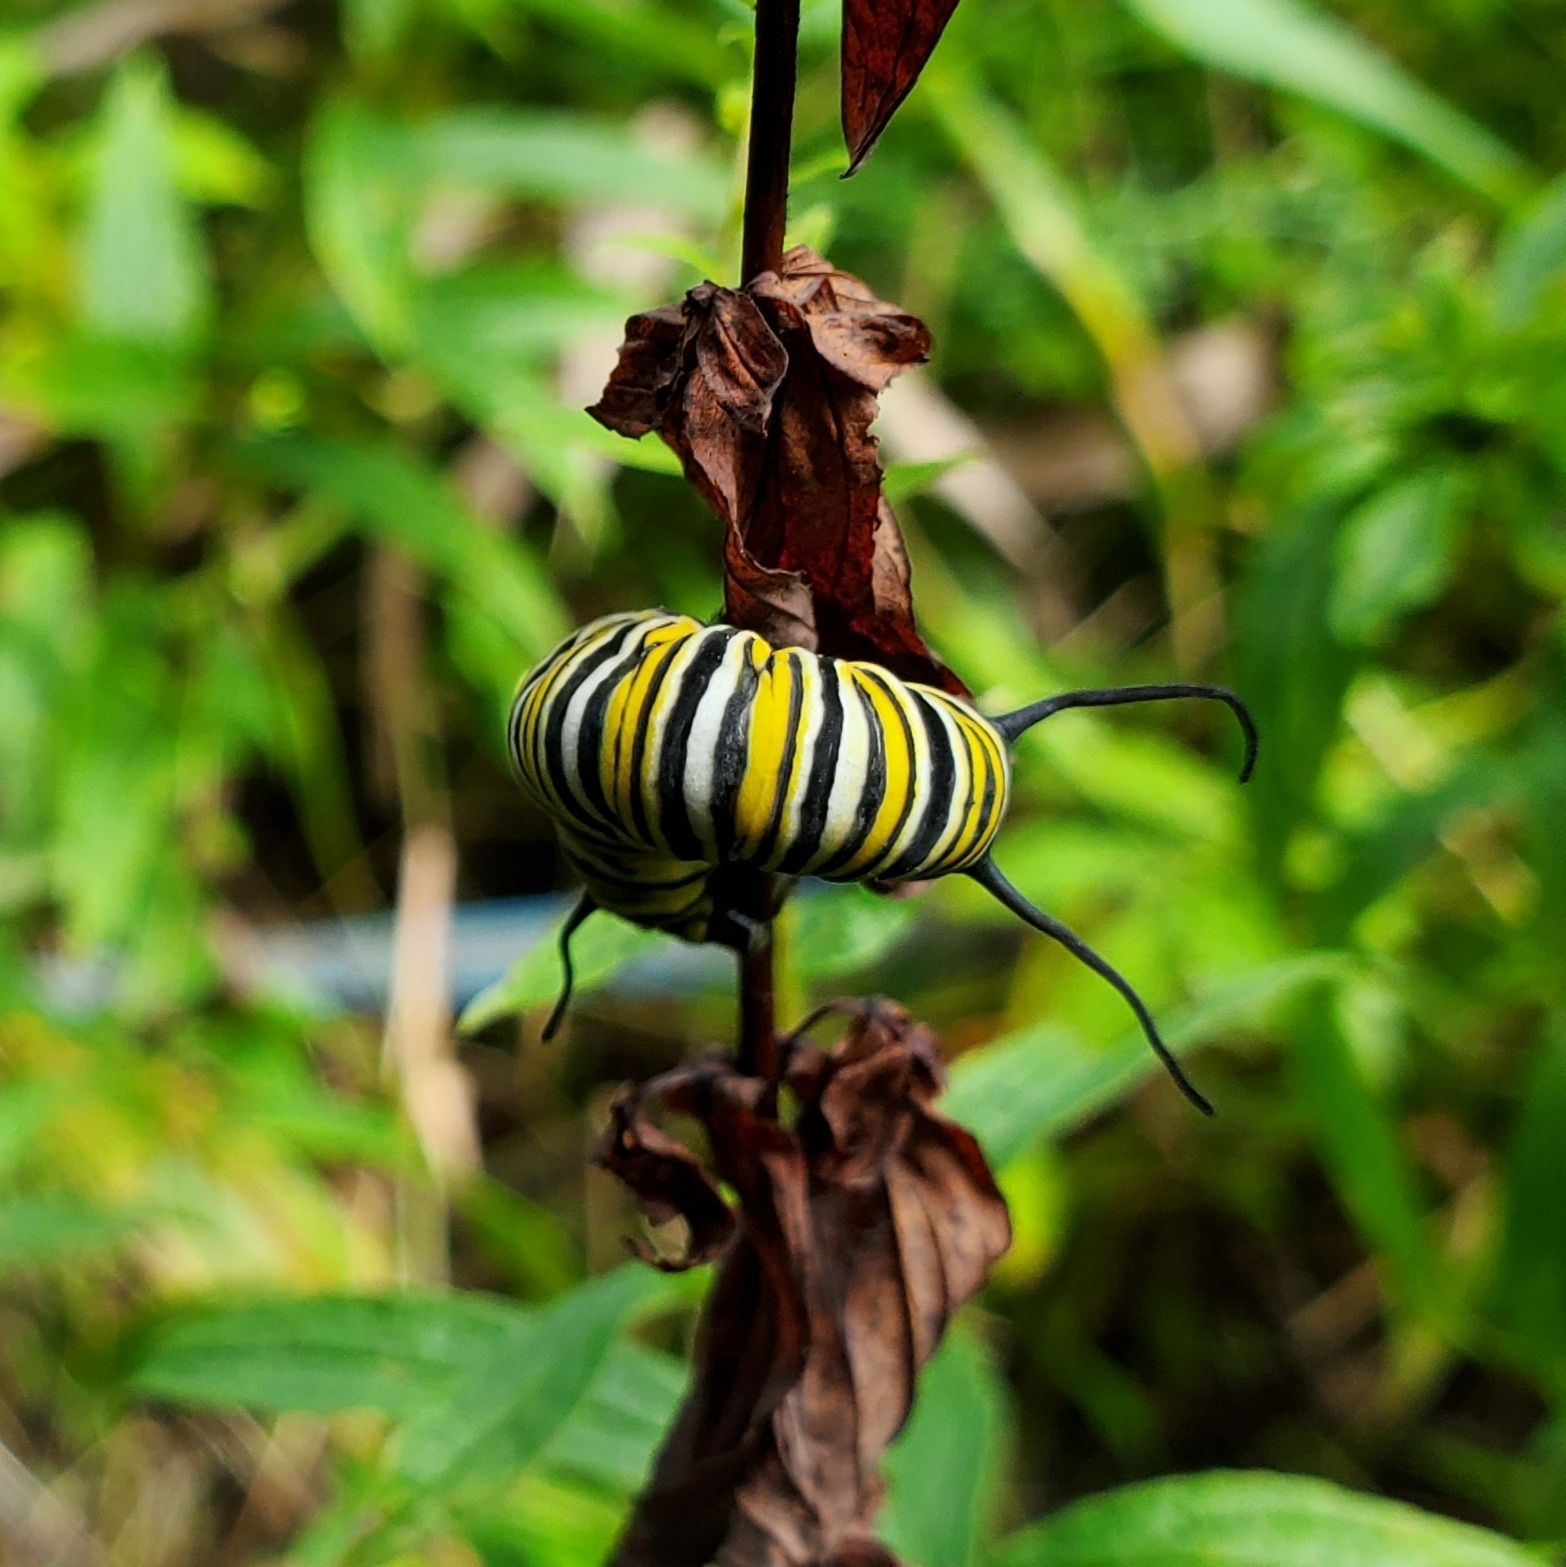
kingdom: Animalia
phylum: Arthropoda
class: Insecta
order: Lepidoptera
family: Nymphalidae
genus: Danaus
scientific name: Danaus plexippus
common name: Monarch
